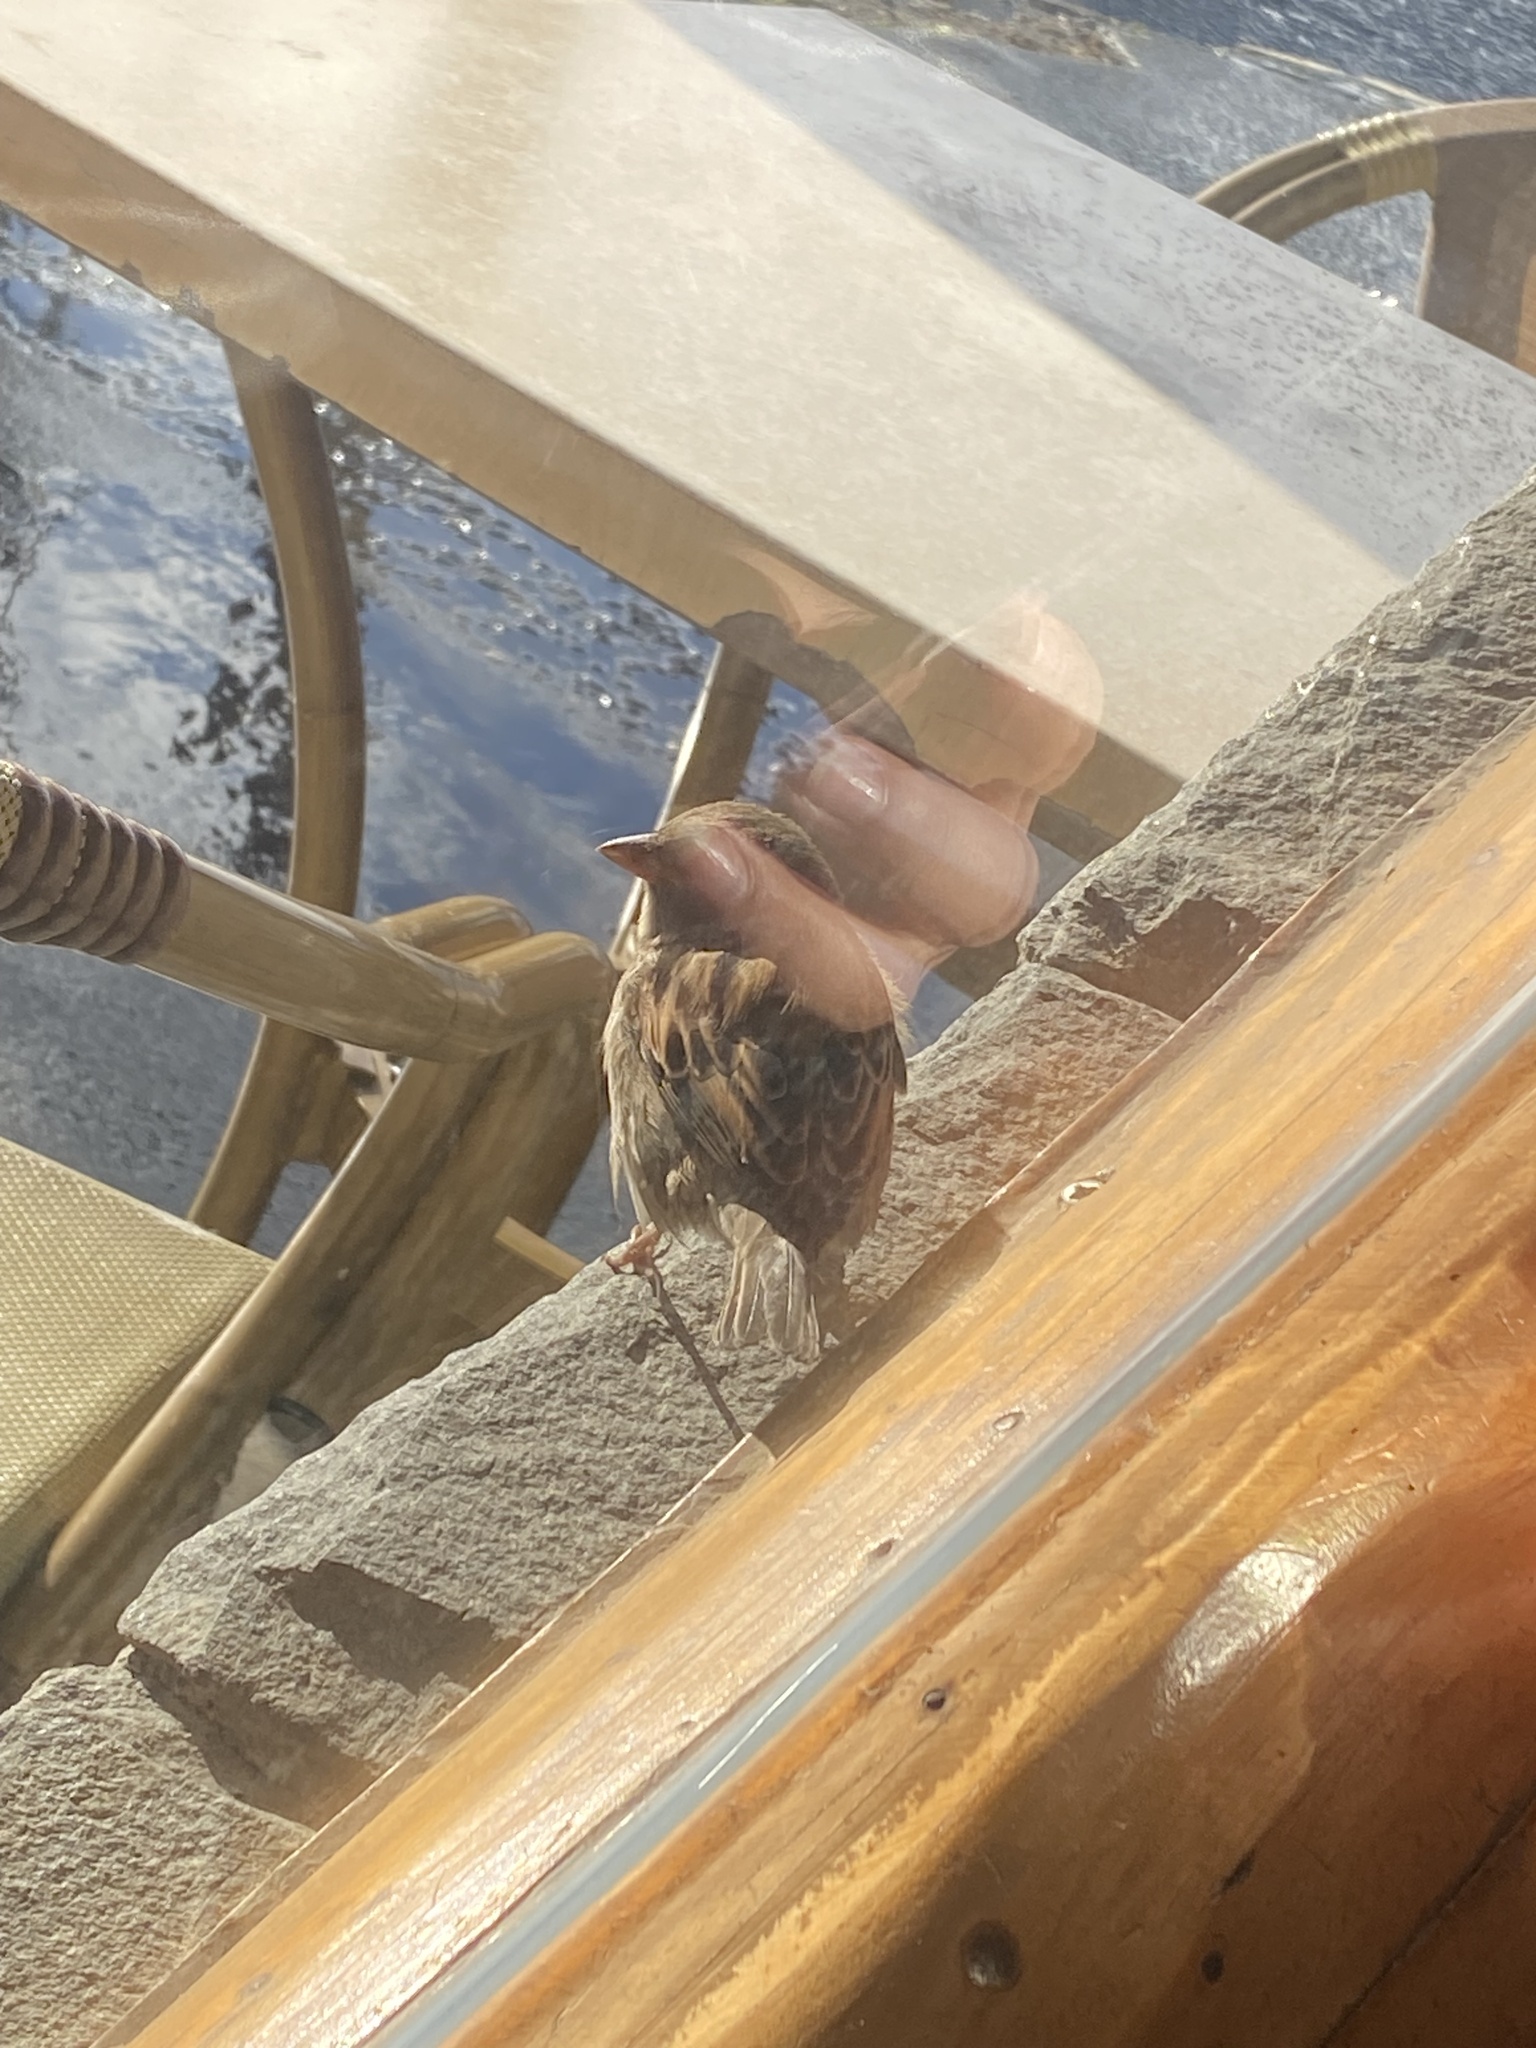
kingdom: Animalia
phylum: Chordata
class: Aves
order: Passeriformes
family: Passeridae
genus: Passer
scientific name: Passer domesticus
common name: House sparrow
